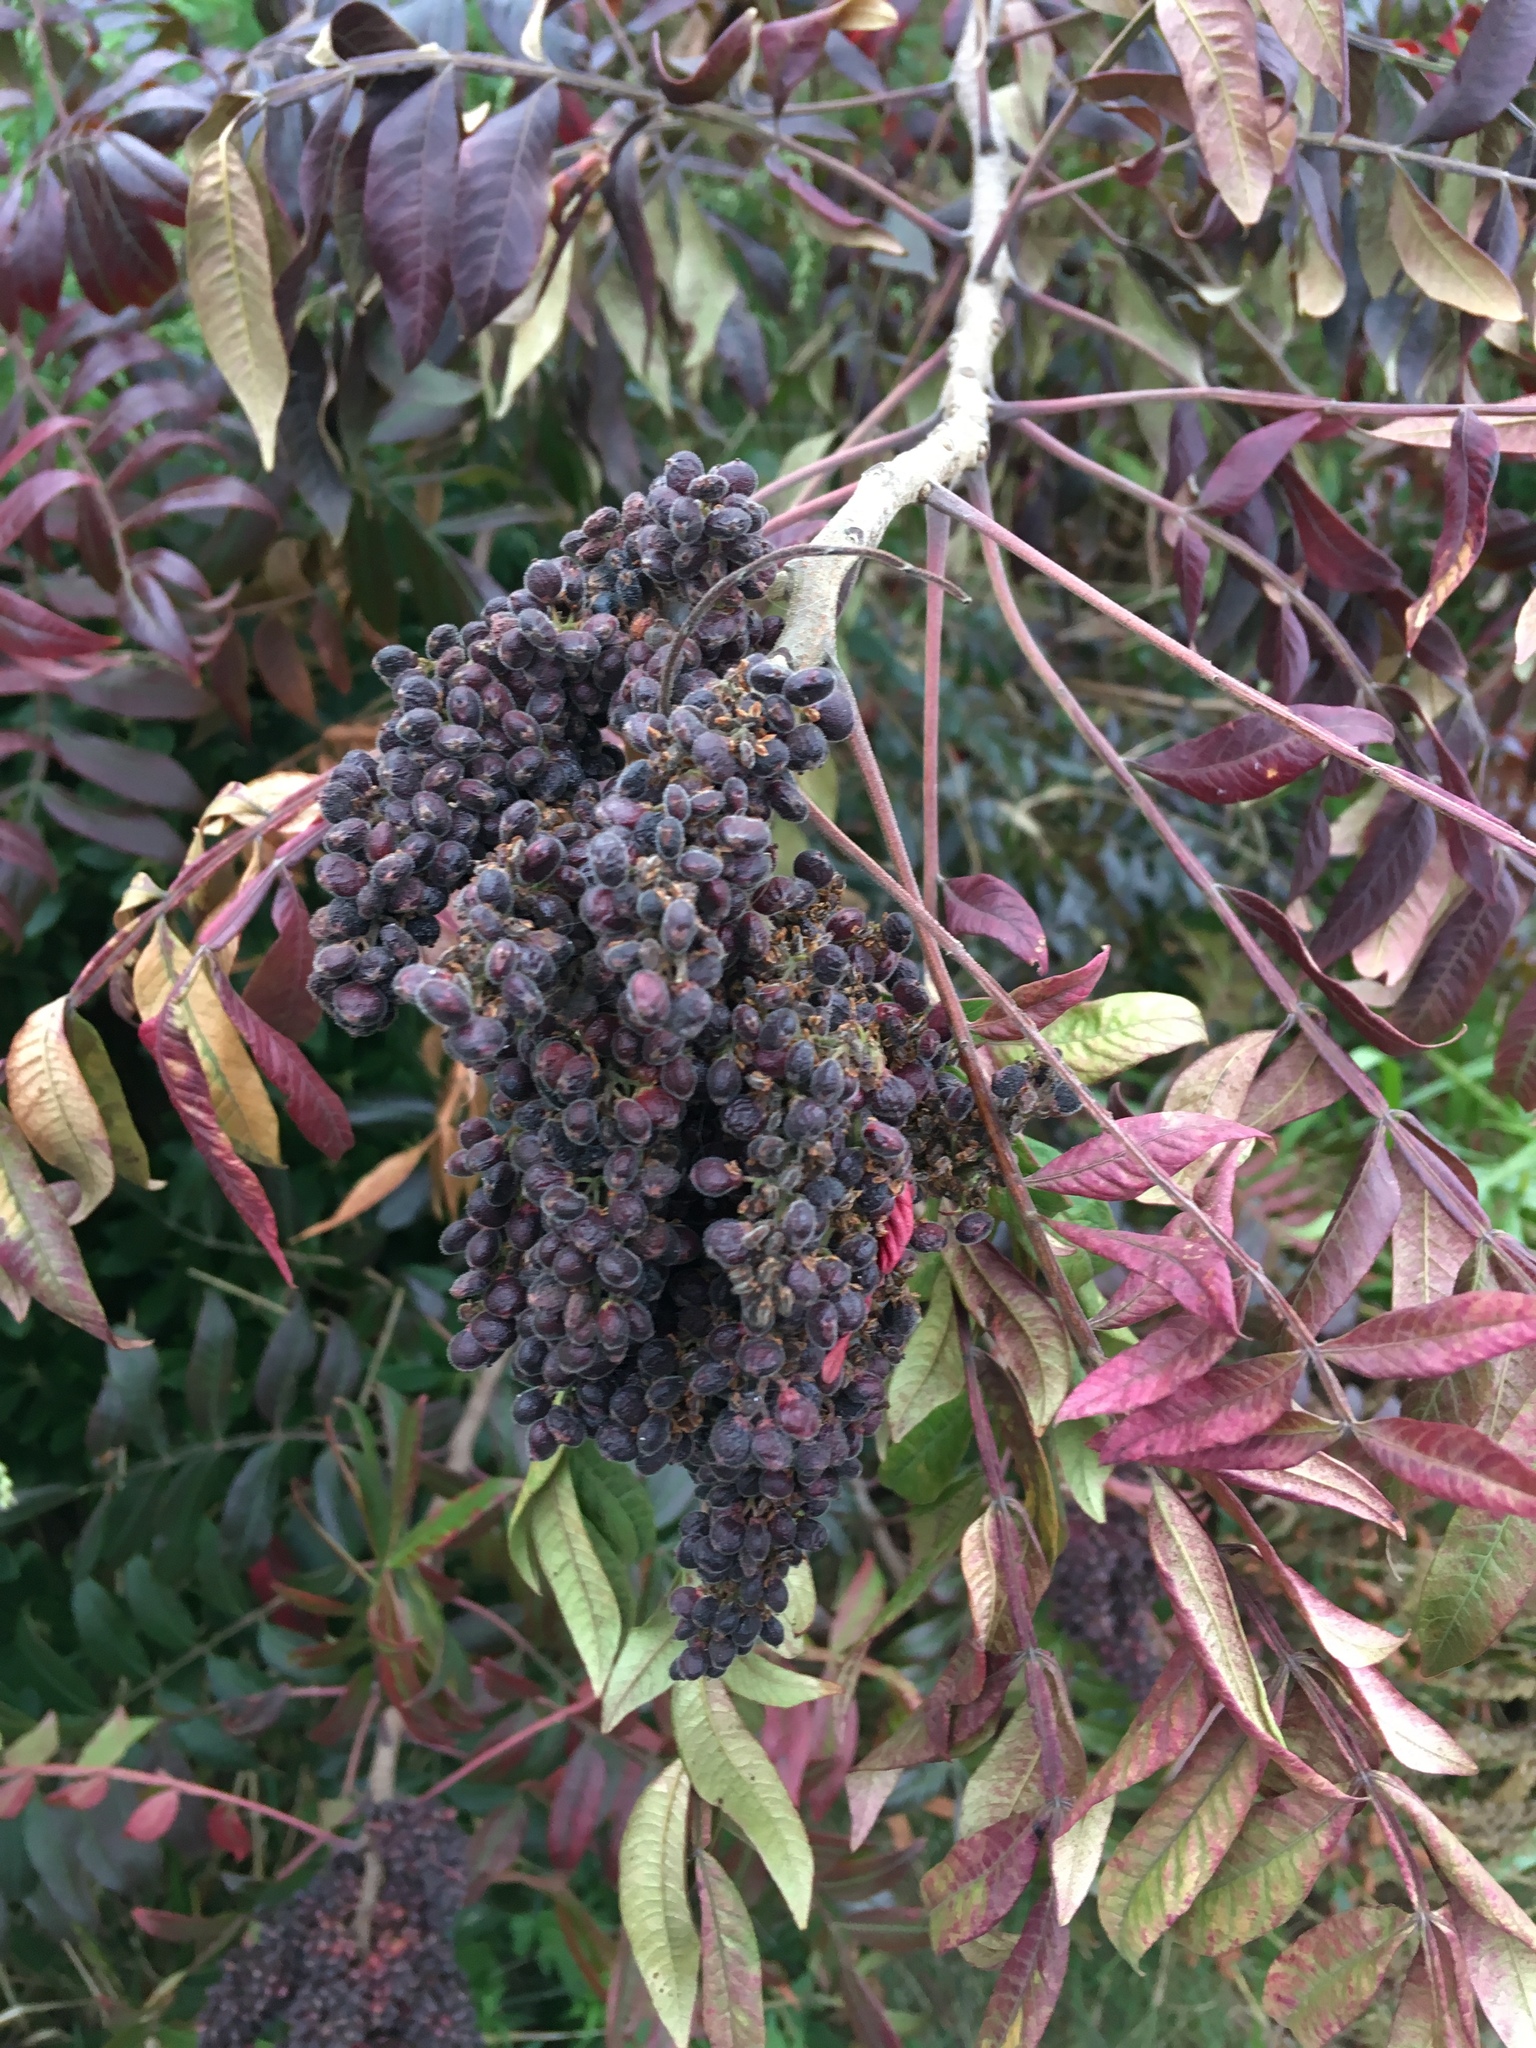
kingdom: Plantae
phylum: Tracheophyta
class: Magnoliopsida
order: Sapindales
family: Anacardiaceae
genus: Rhus
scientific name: Rhus copallina
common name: Shining sumac
